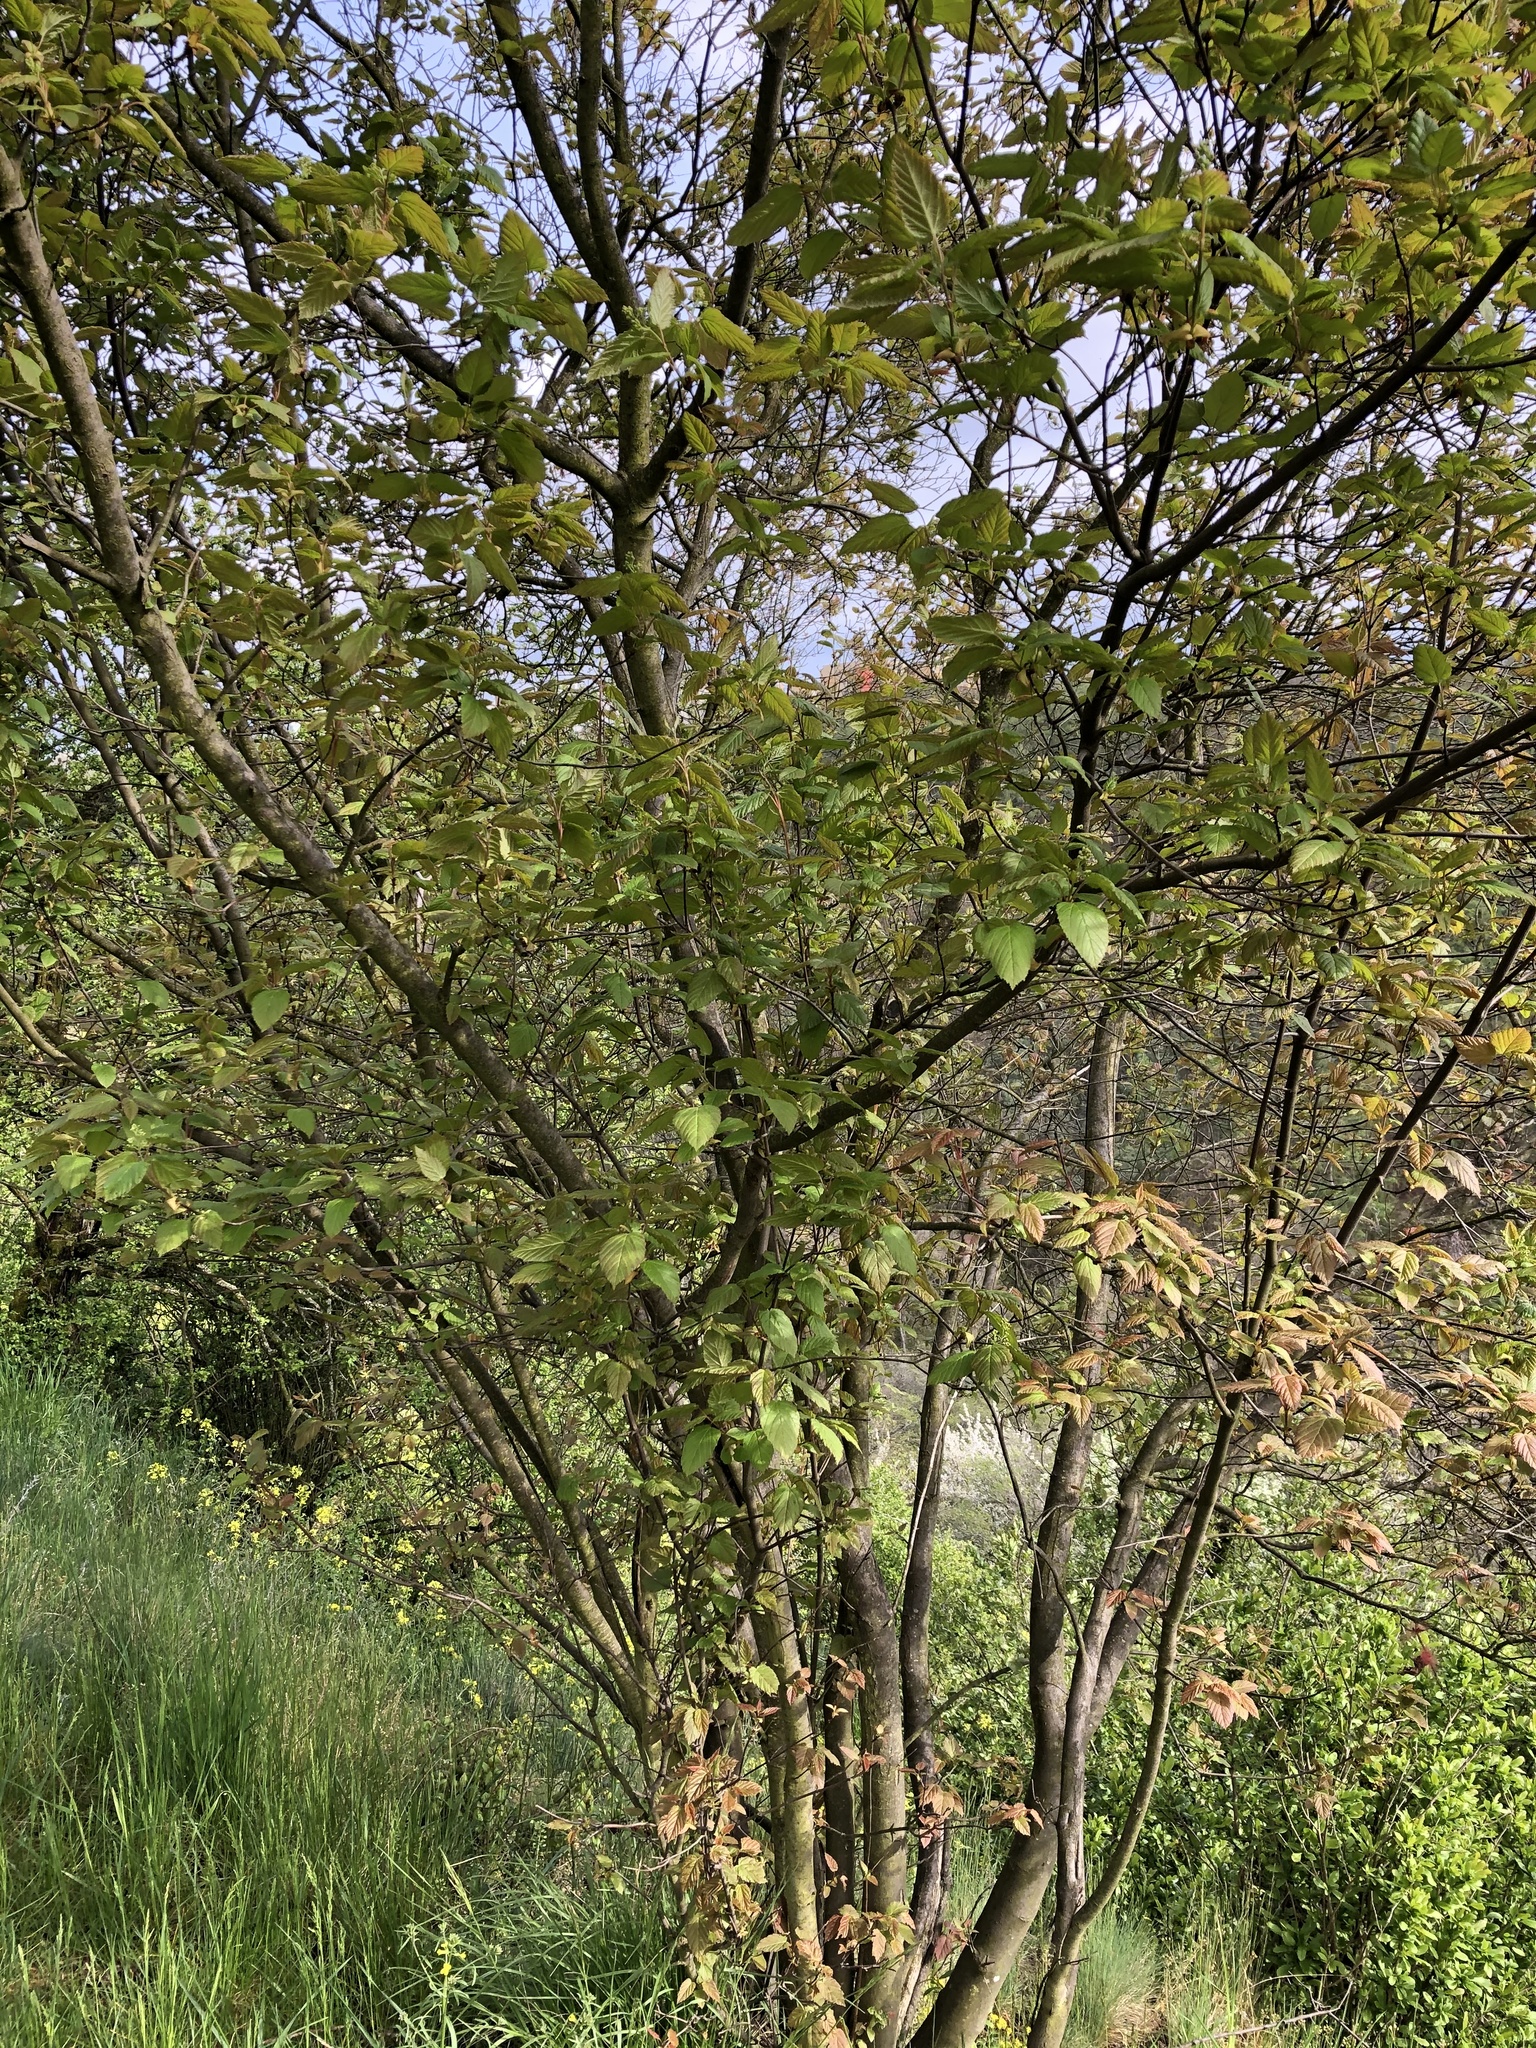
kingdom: Plantae
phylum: Tracheophyta
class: Magnoliopsida
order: Sapindales
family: Sapindaceae
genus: Acer
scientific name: Acer tataricum
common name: Tartar maple
